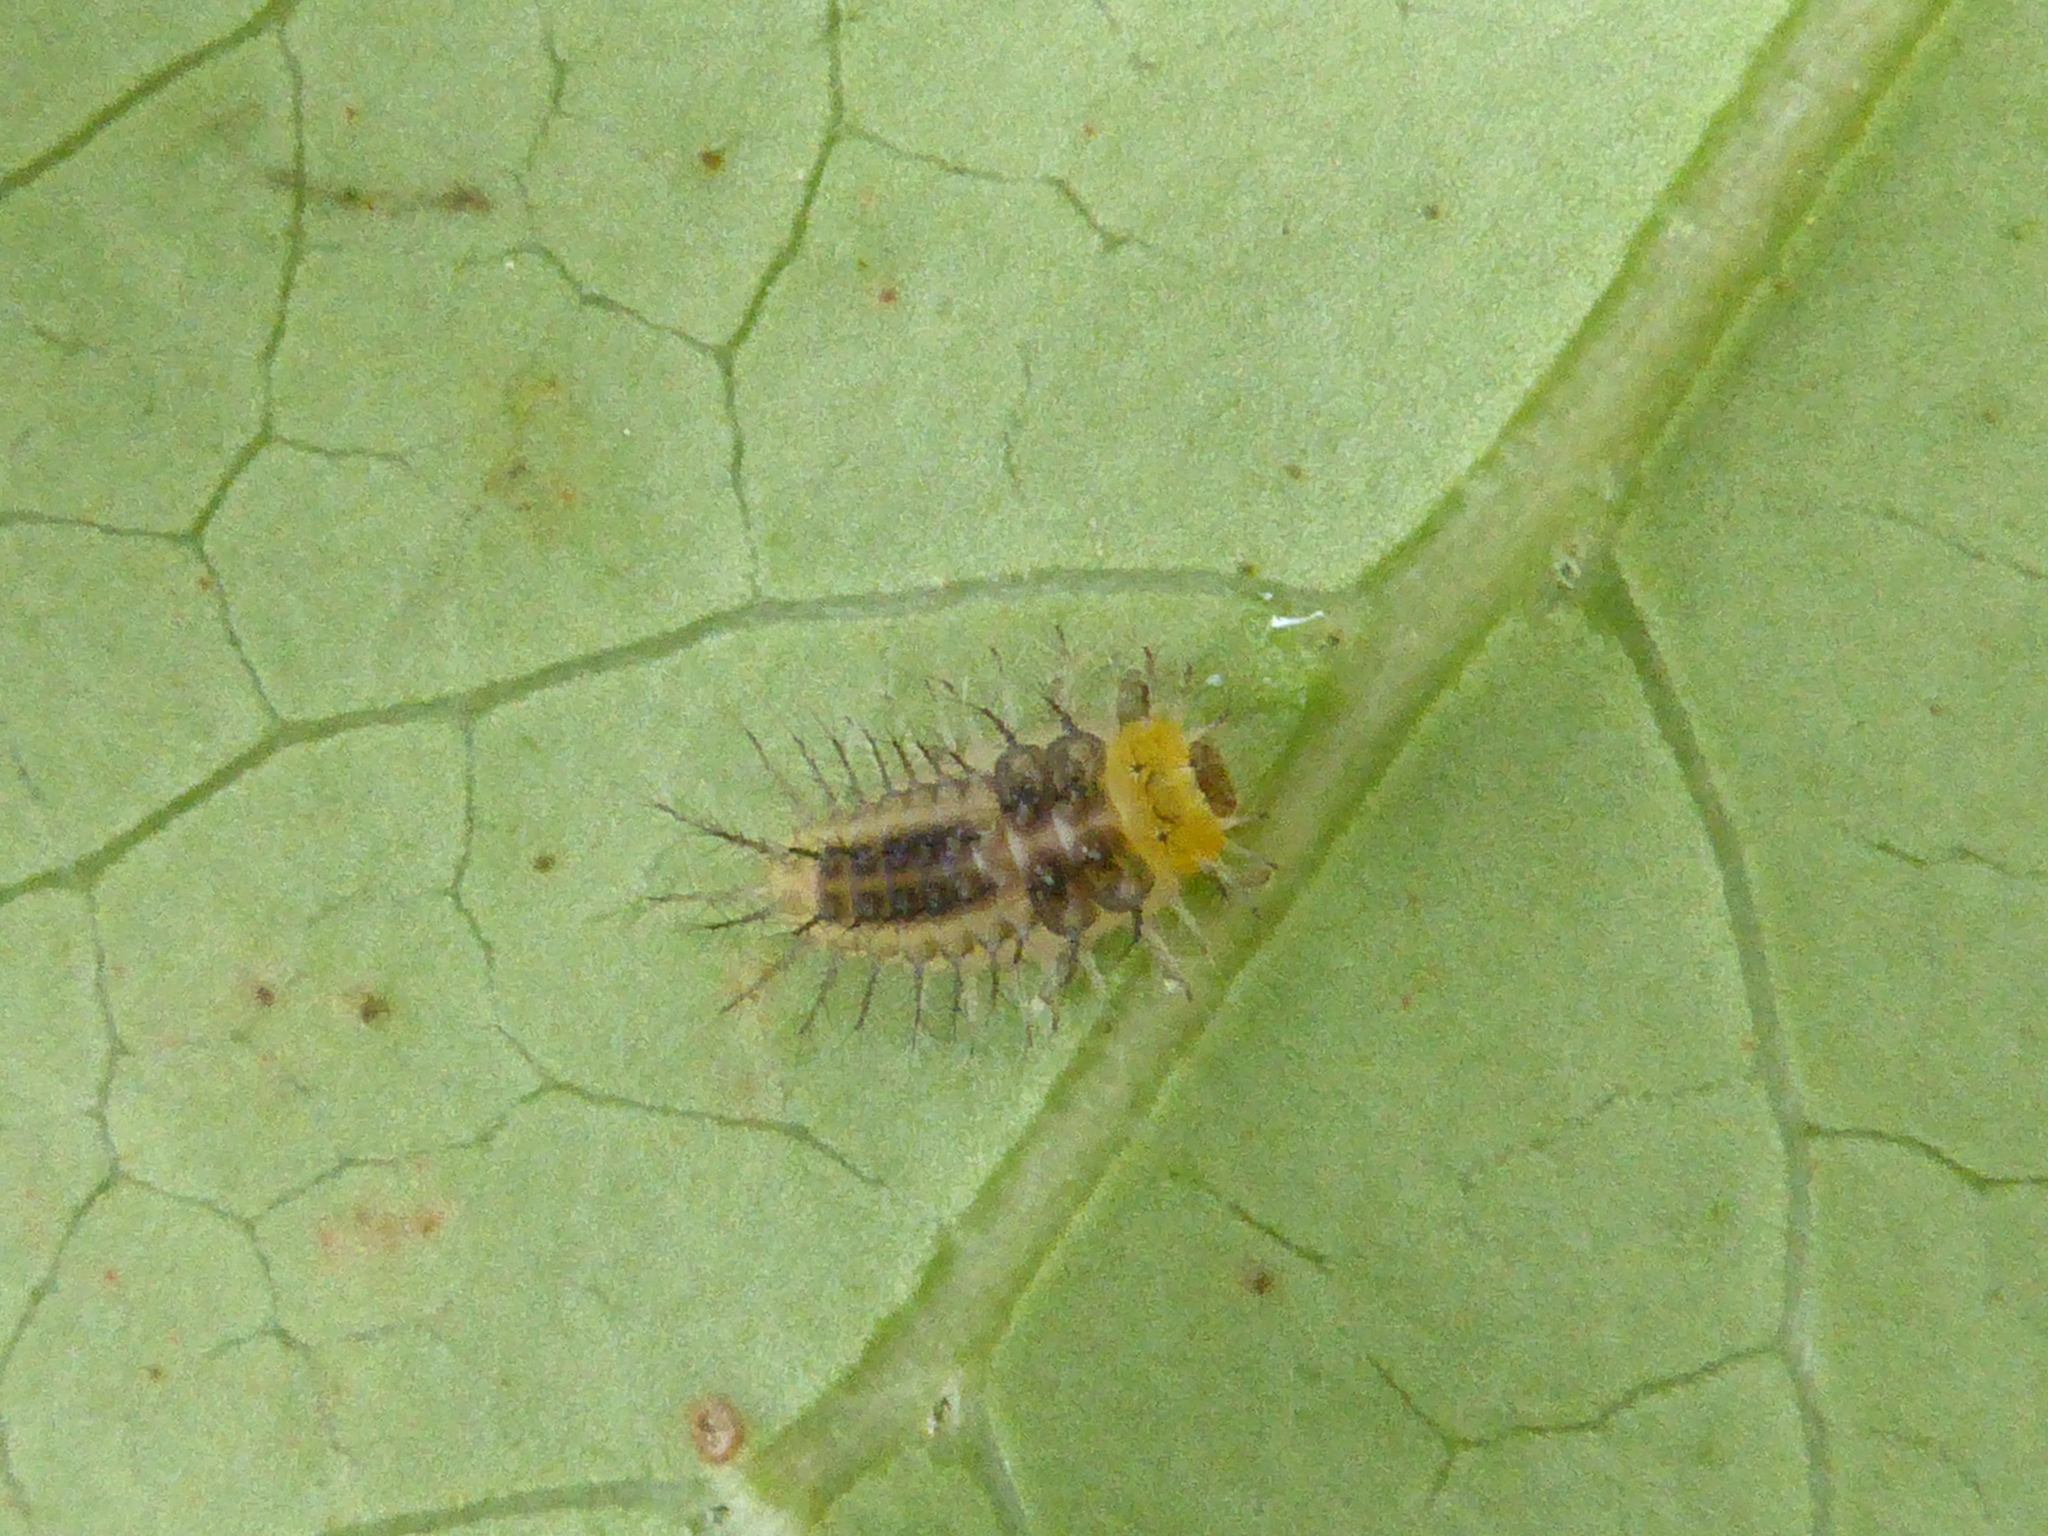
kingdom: Animalia
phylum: Arthropoda
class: Insecta
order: Coleoptera
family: Coccinellidae
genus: Halmus
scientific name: Halmus chalybeus
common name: Steel blue ladybird beetle
